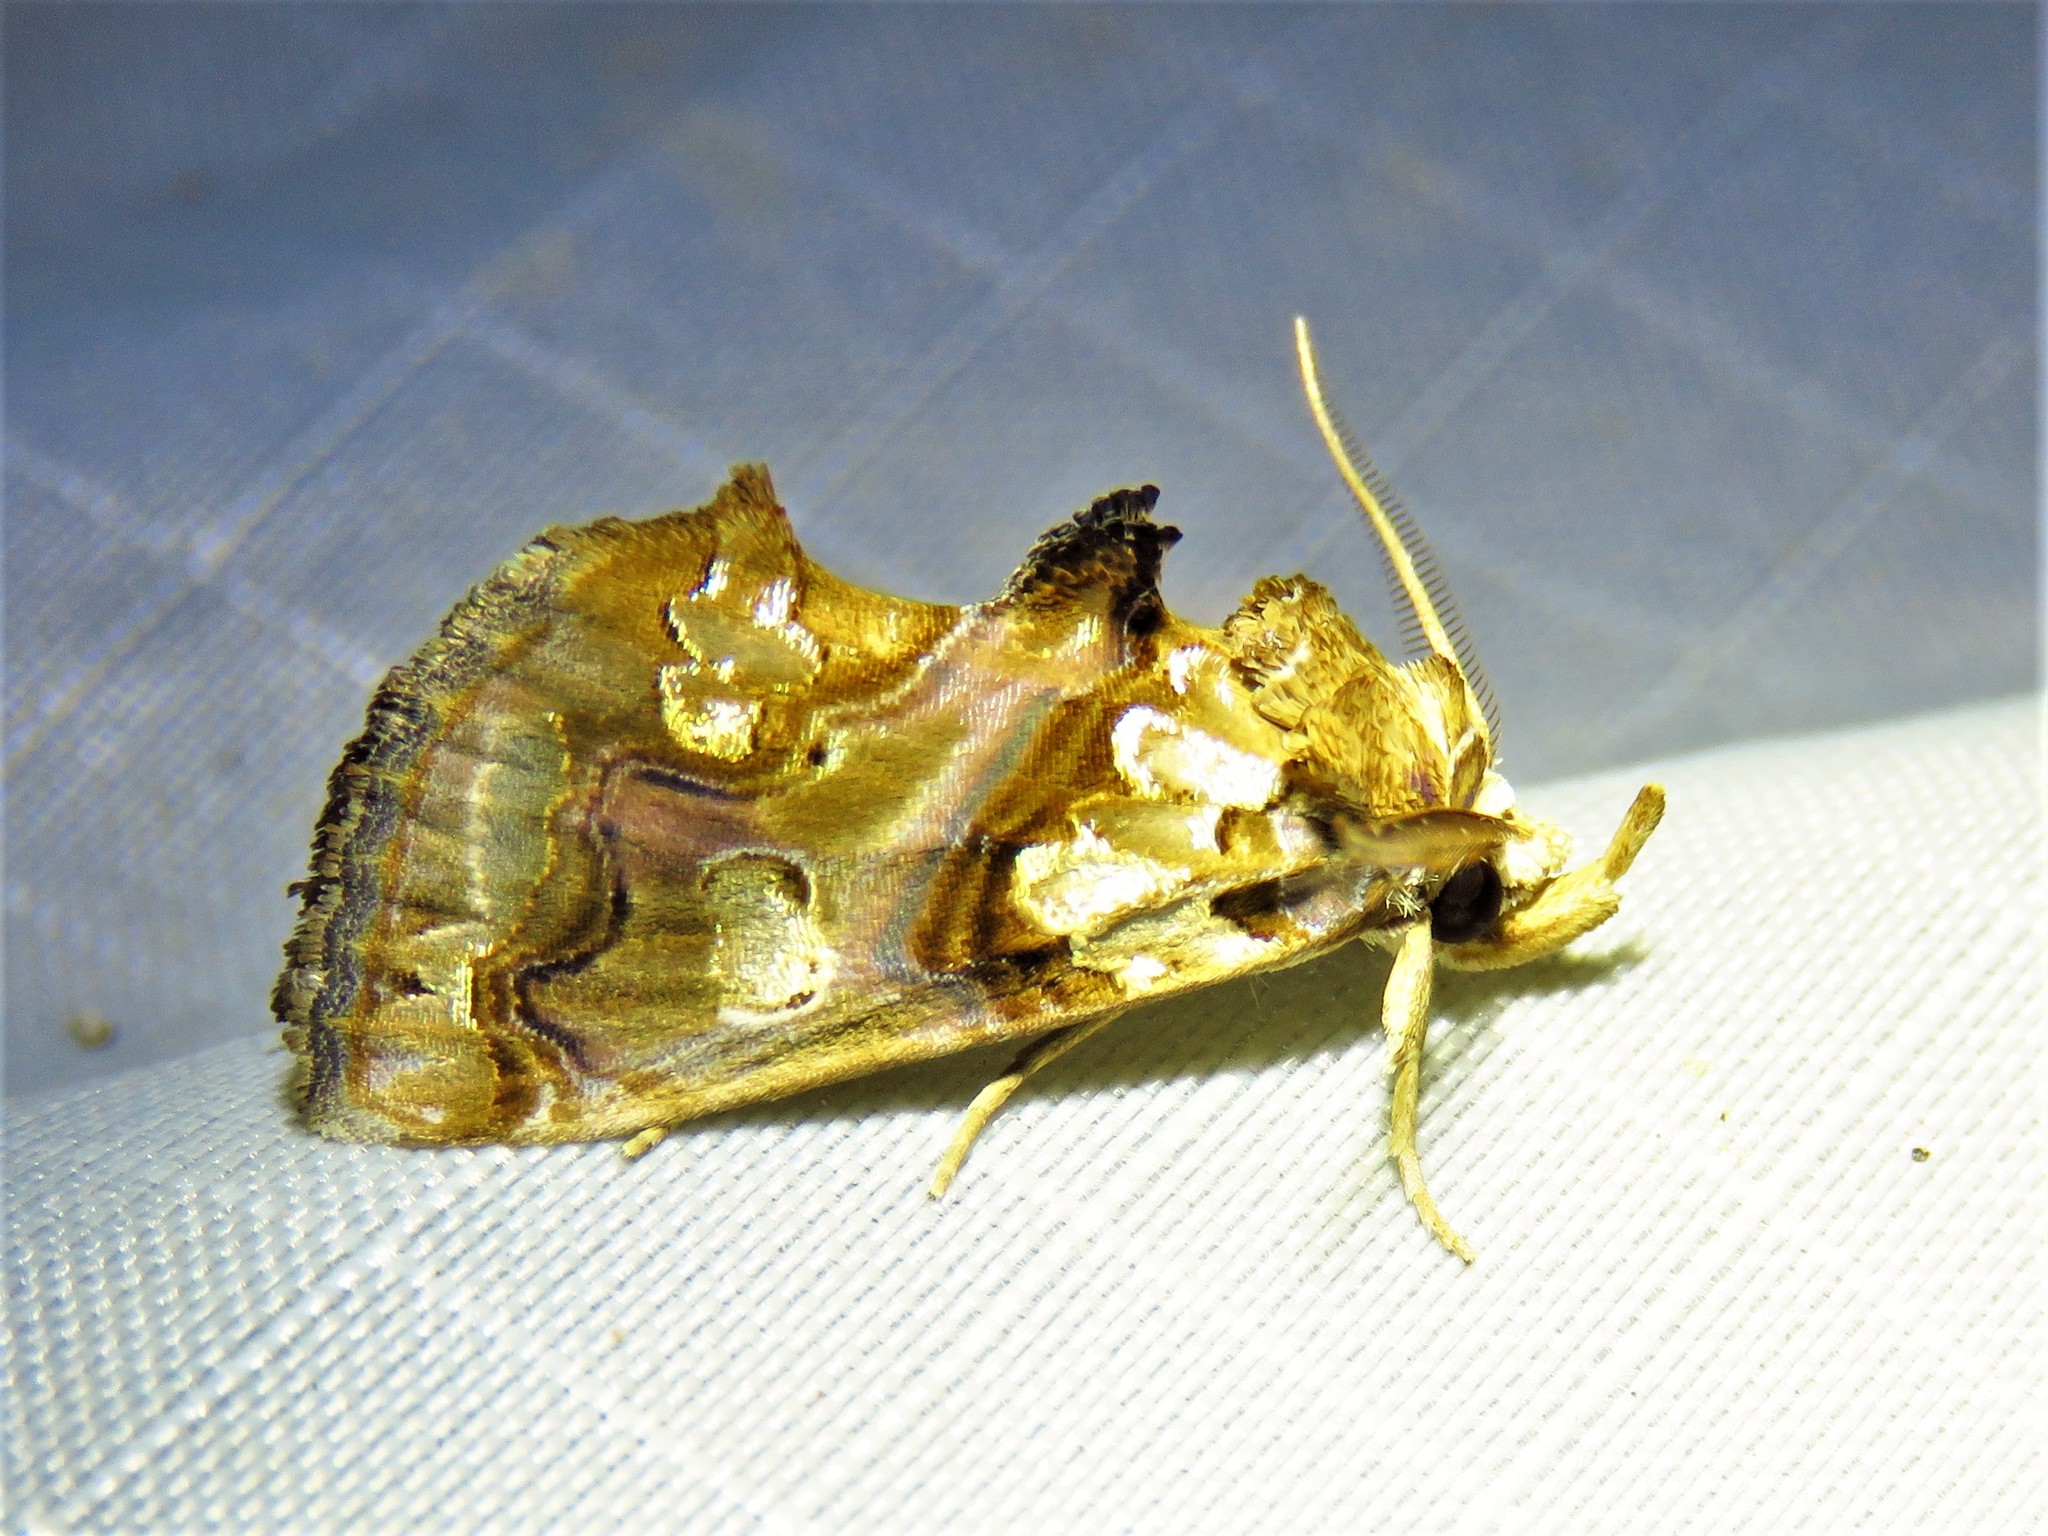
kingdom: Animalia
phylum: Arthropoda
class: Insecta
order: Lepidoptera
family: Erebidae
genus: Plusiodonta
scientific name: Plusiodonta compressipalpis
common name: Moonseed moth
